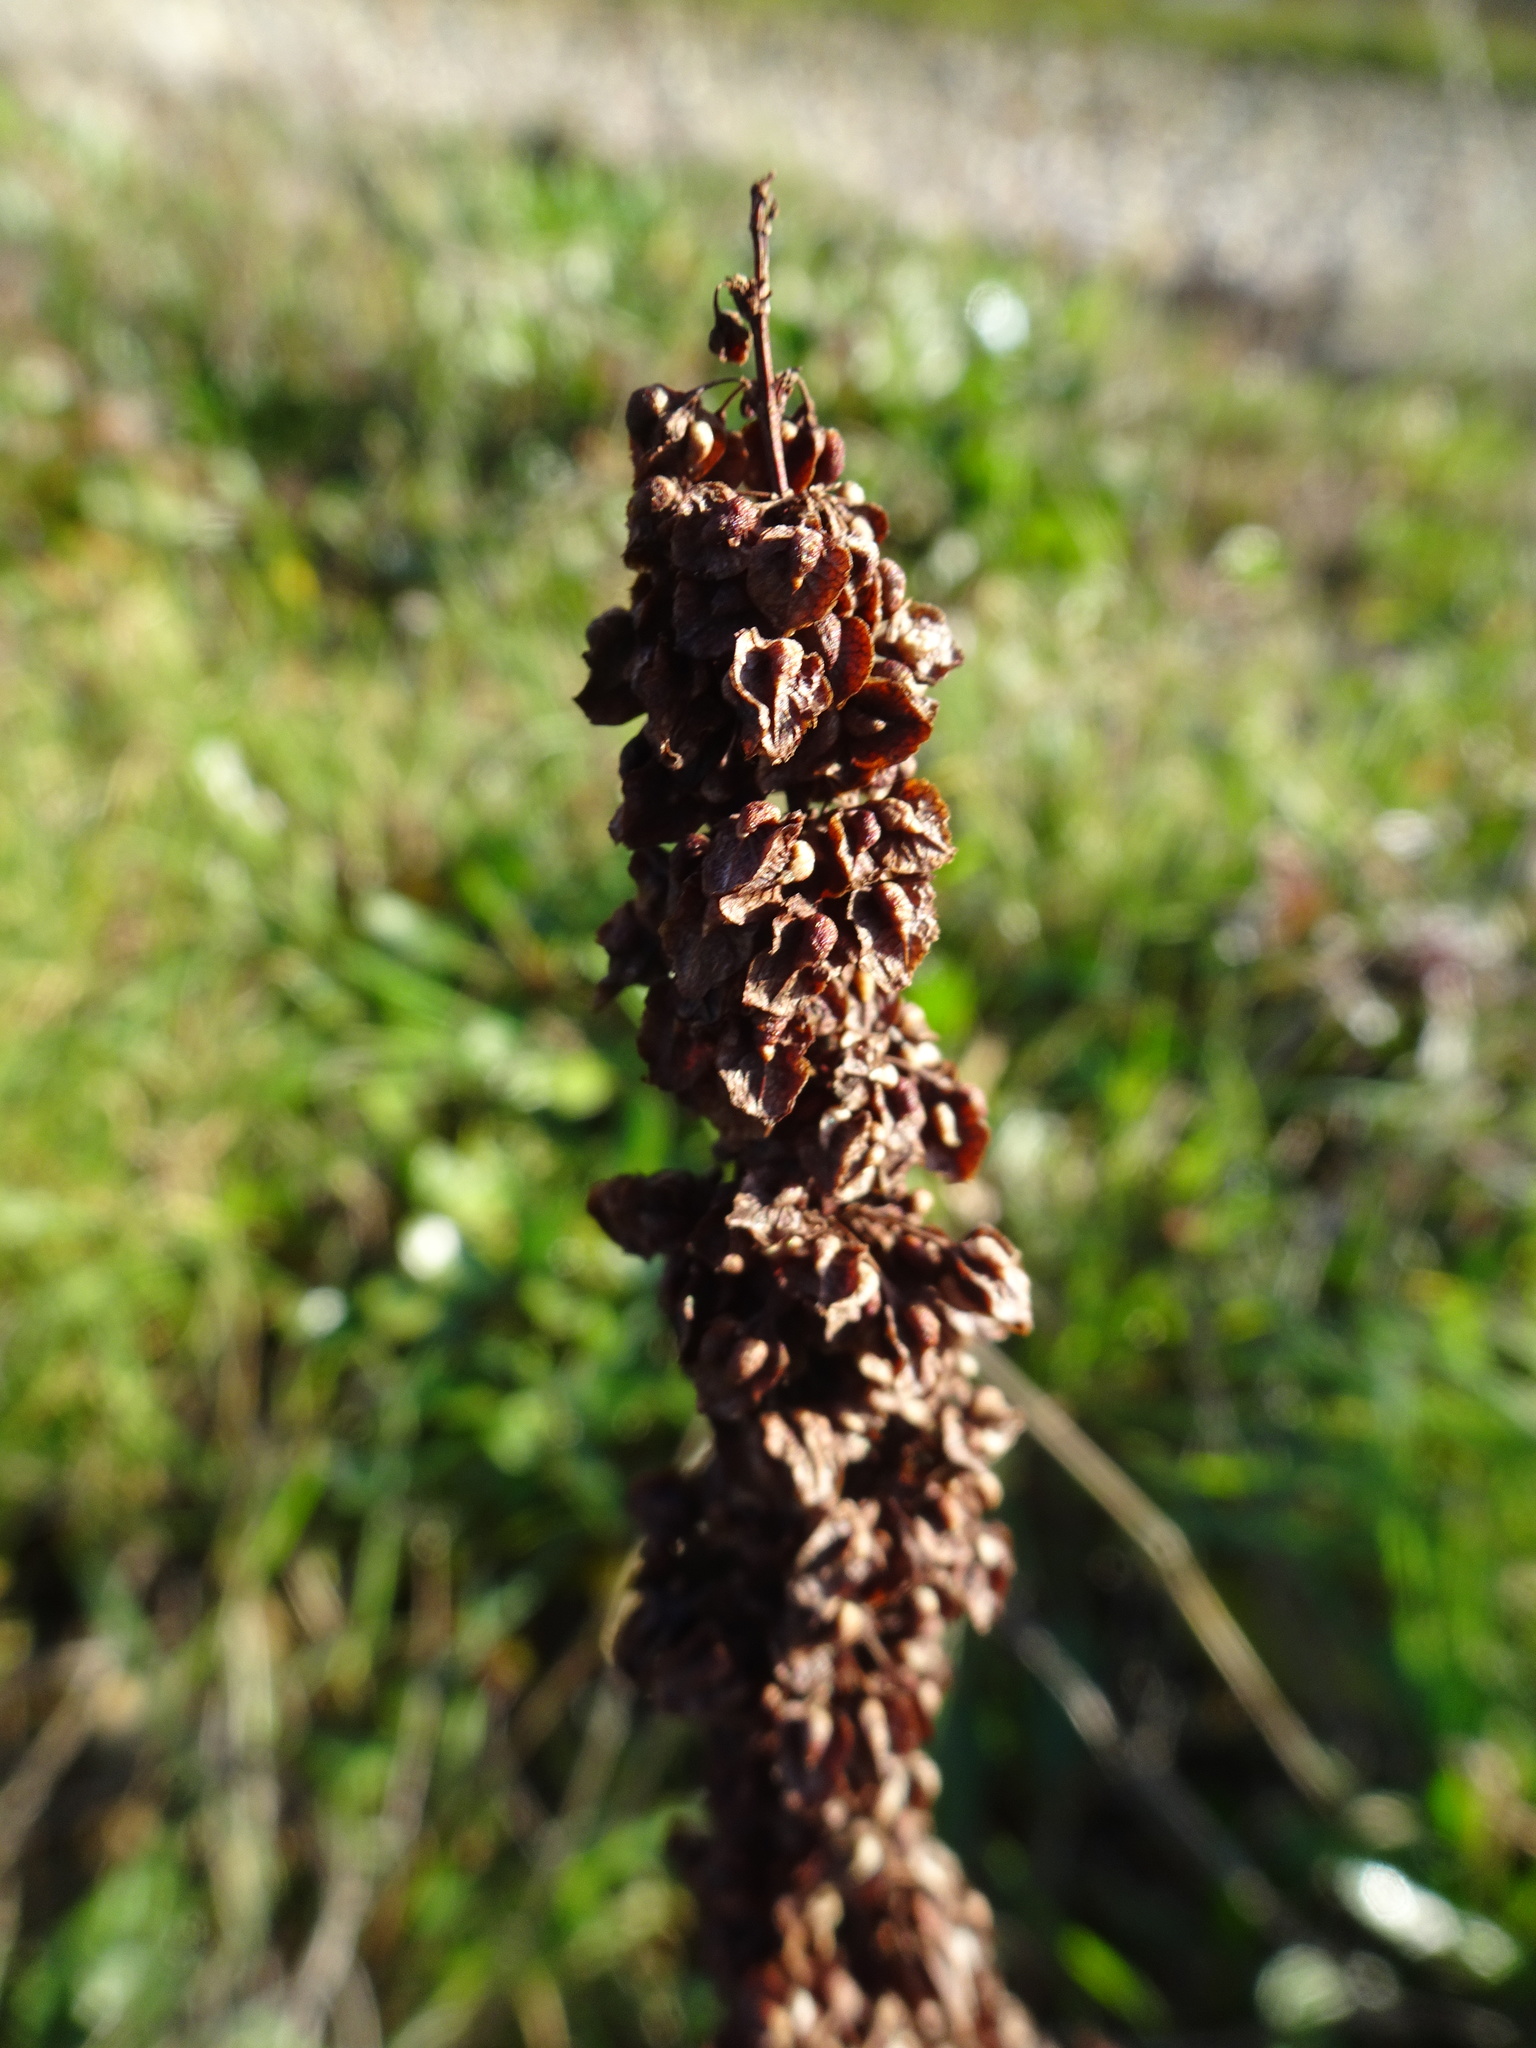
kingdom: Plantae
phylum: Tracheophyta
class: Magnoliopsida
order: Caryophyllales
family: Polygonaceae
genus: Rumex
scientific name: Rumex crispus
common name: Curled dock
